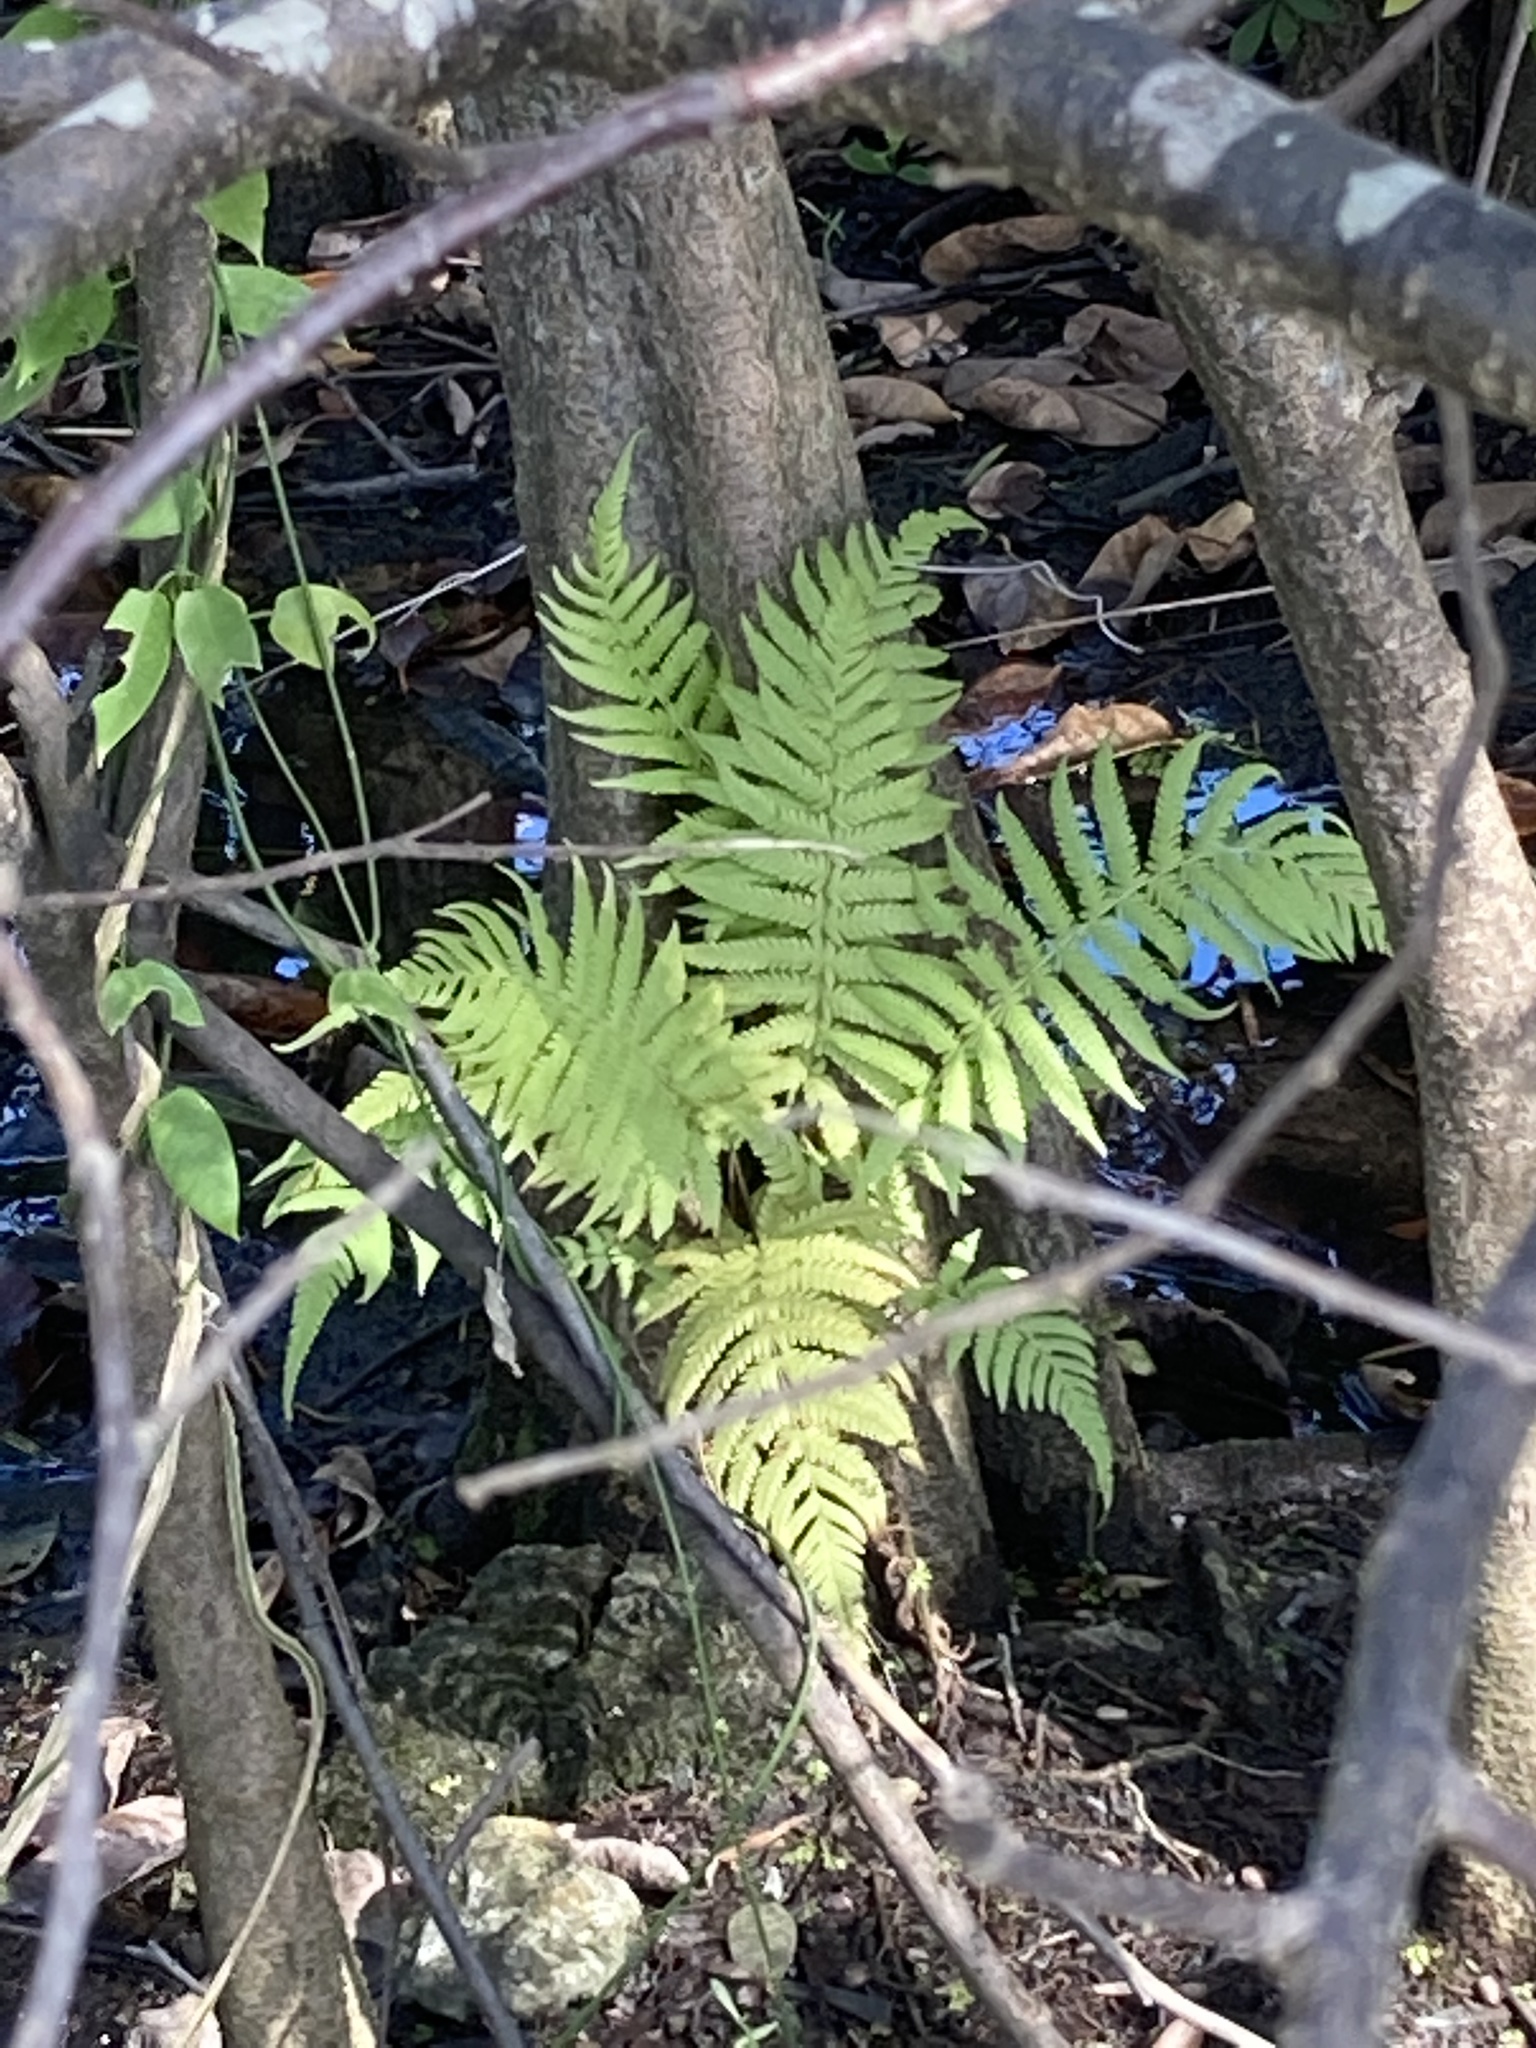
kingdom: Plantae
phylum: Tracheophyta
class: Polypodiopsida
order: Polypodiales
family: Thelypteridaceae
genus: Pelazoneuron
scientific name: Pelazoneuron kunthii
